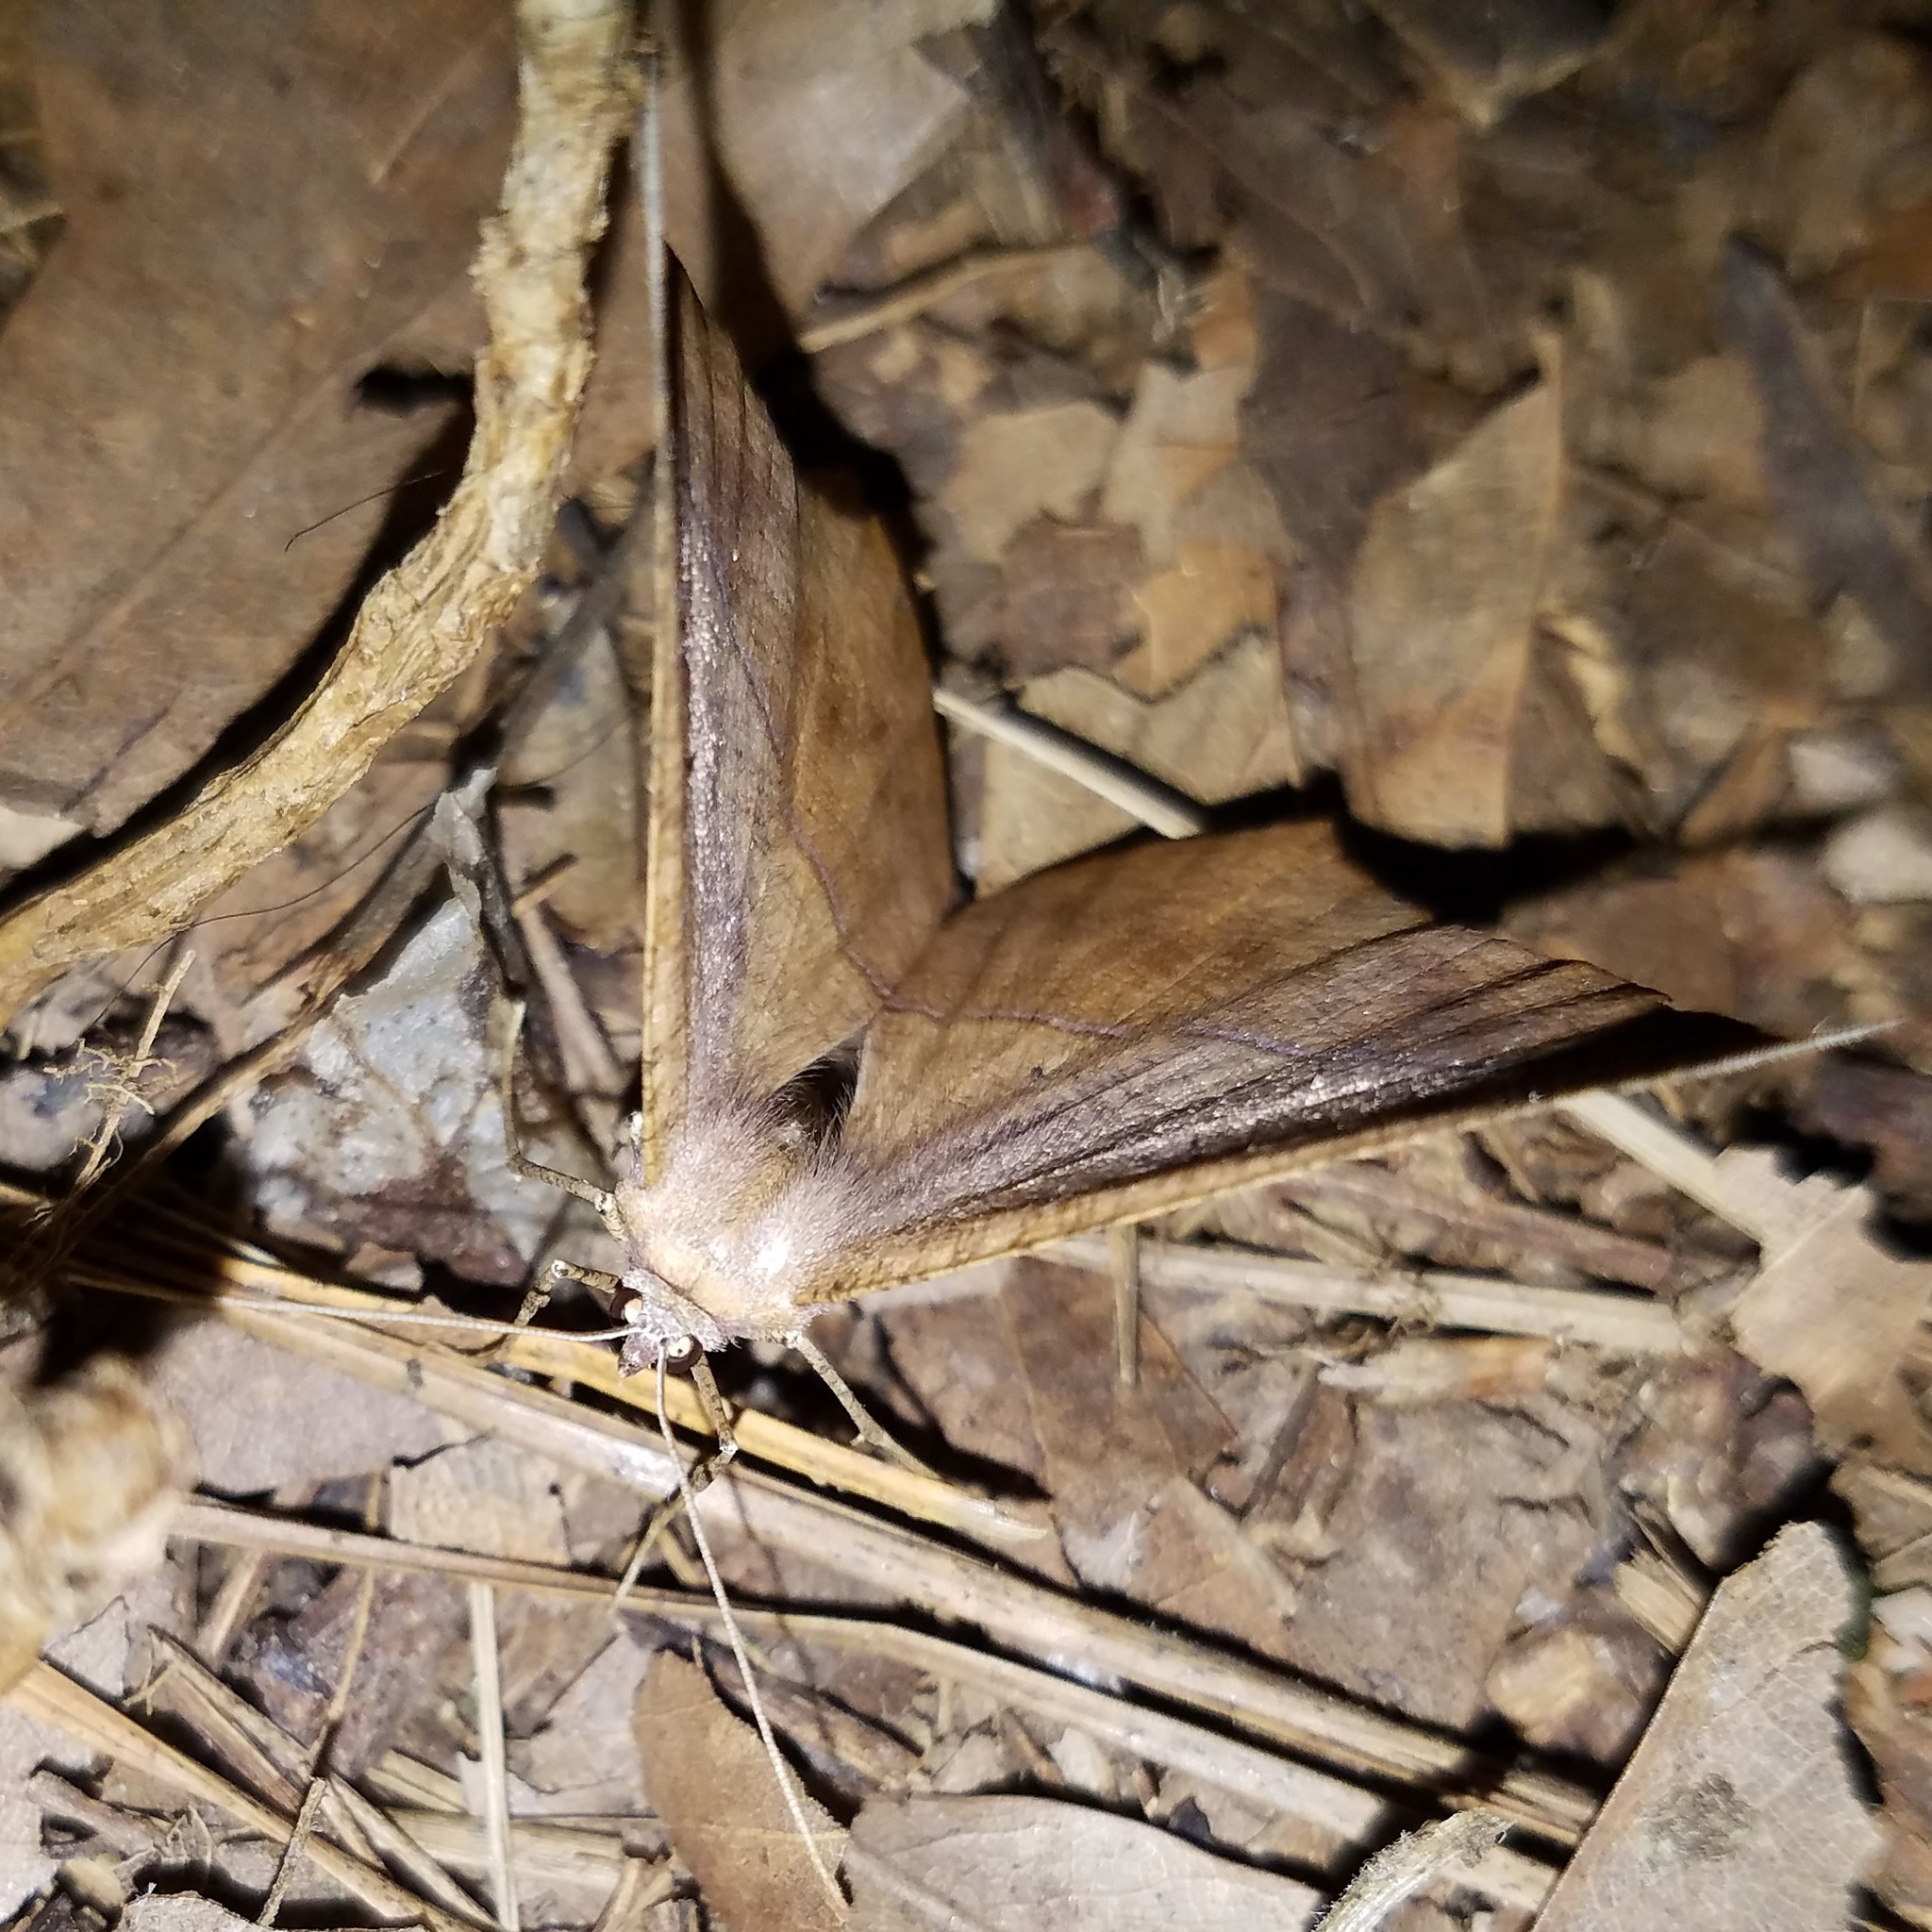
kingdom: Animalia
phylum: Arthropoda
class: Insecta
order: Lepidoptera
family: Geometridae
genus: Prochoerodes
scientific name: Prochoerodes lineola
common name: Large maple spanworm
